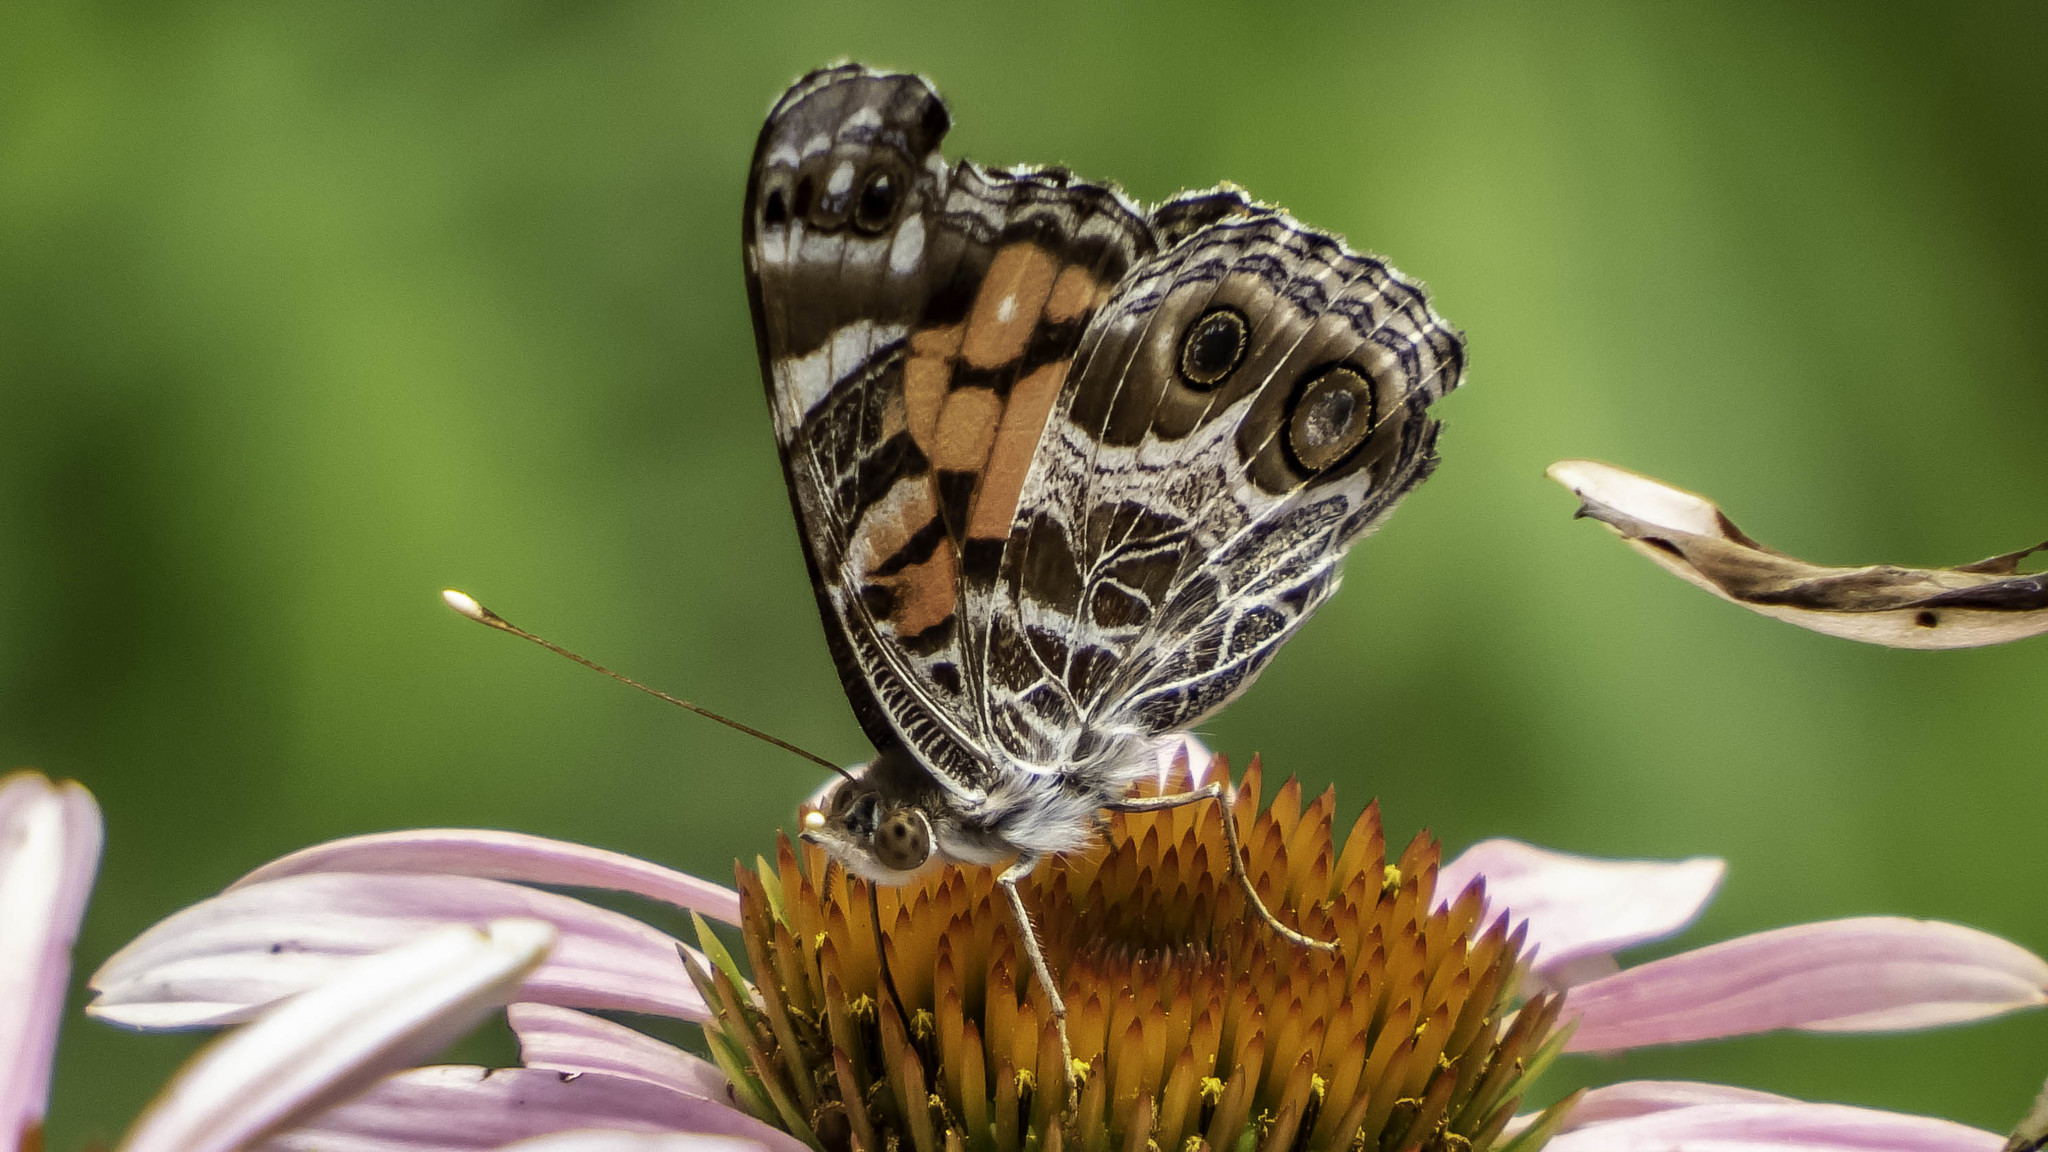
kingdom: Animalia
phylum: Arthropoda
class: Insecta
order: Lepidoptera
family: Nymphalidae
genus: Vanessa
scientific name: Vanessa virginiensis
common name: American lady
